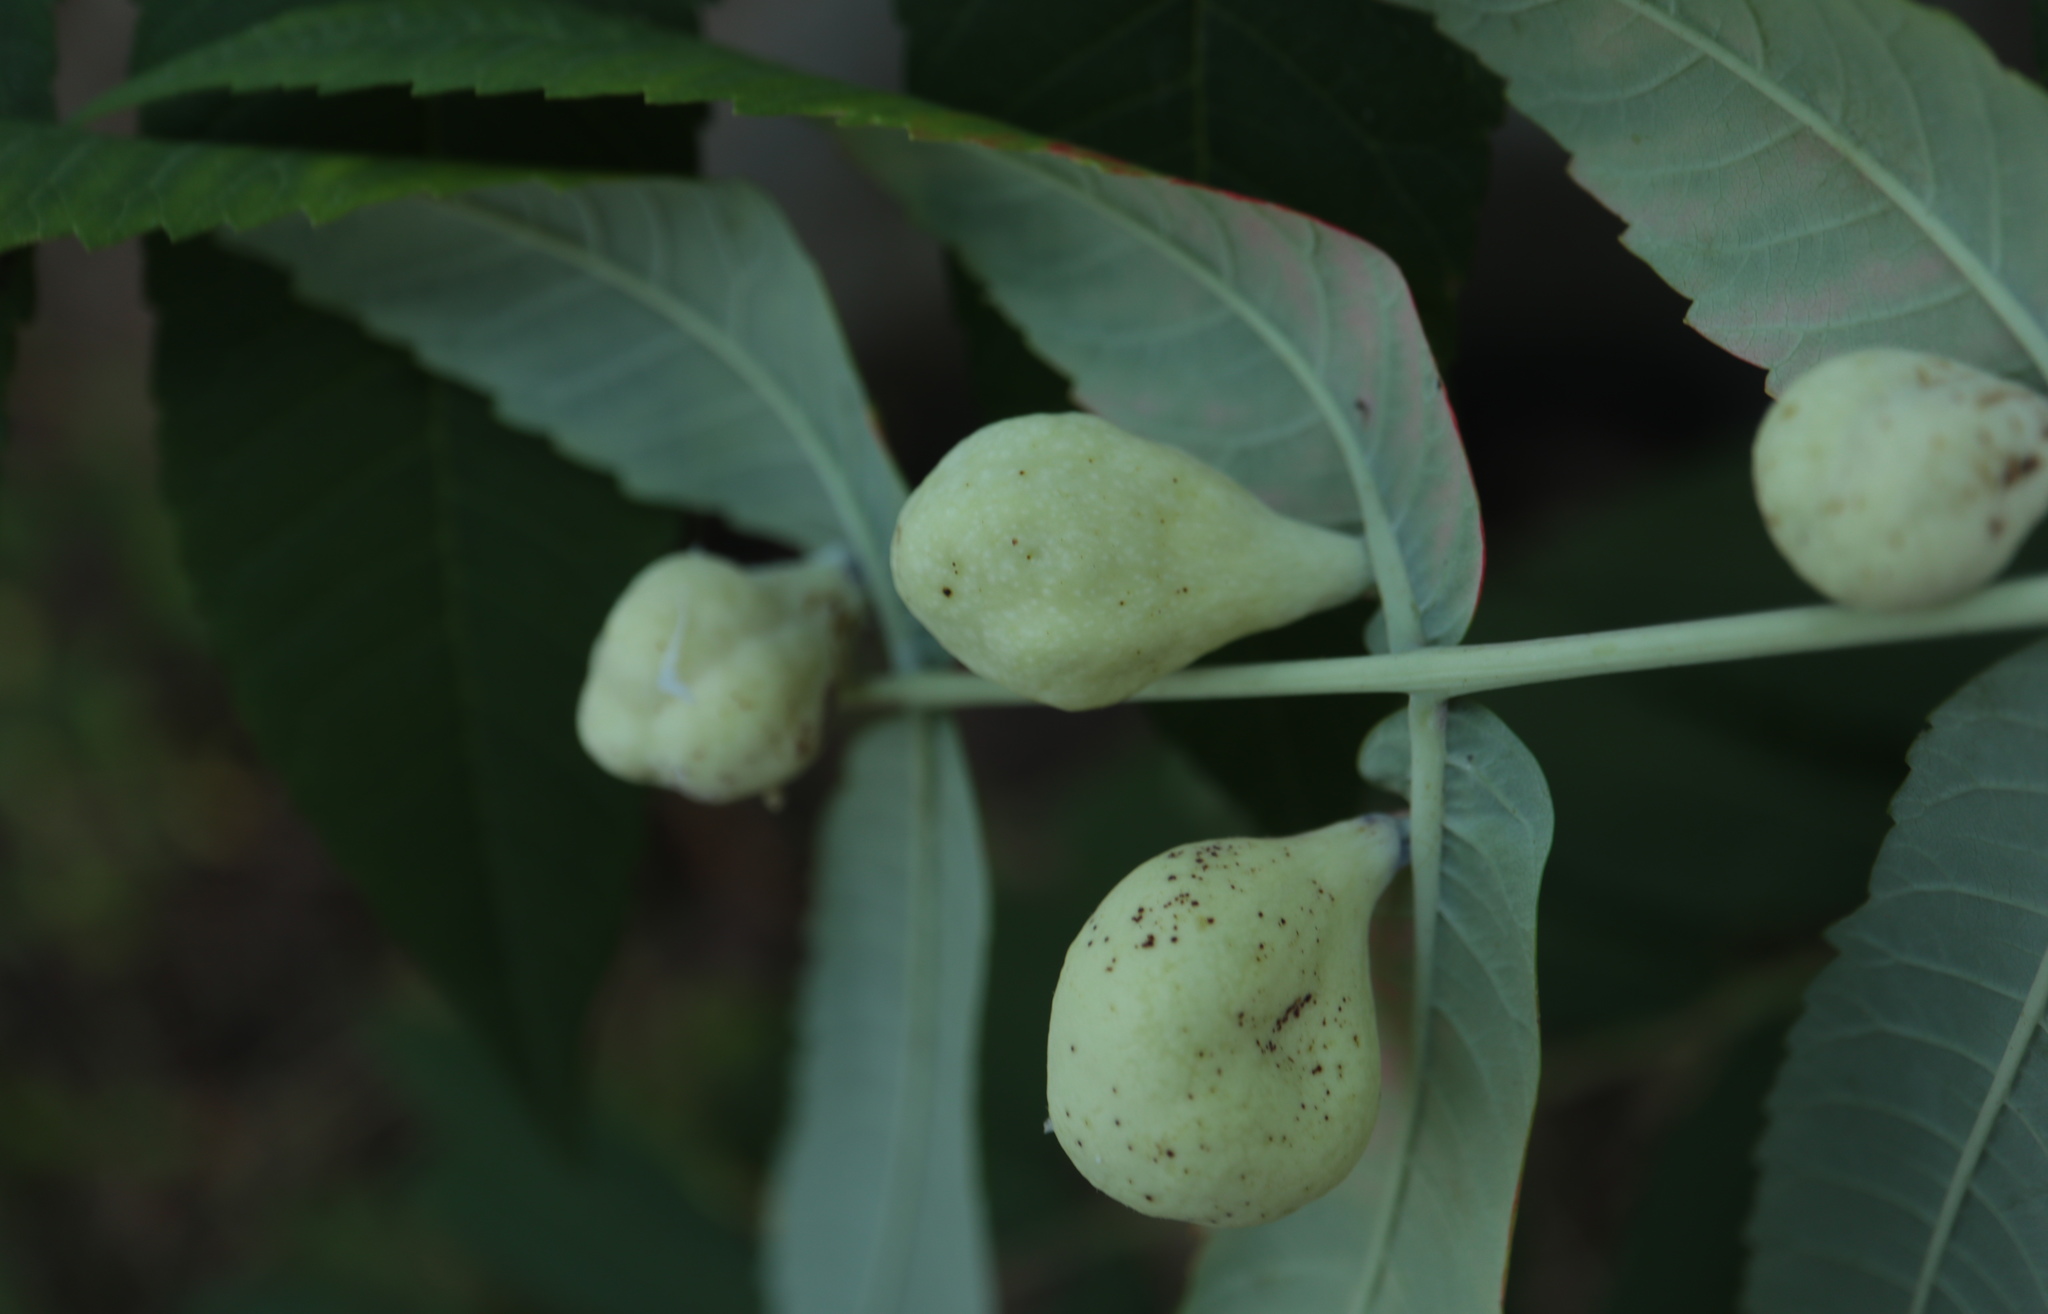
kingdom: Animalia
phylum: Arthropoda
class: Insecta
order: Hemiptera
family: Aphididae
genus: Melaphis
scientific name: Melaphis rhois
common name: Sumac gall aphid
